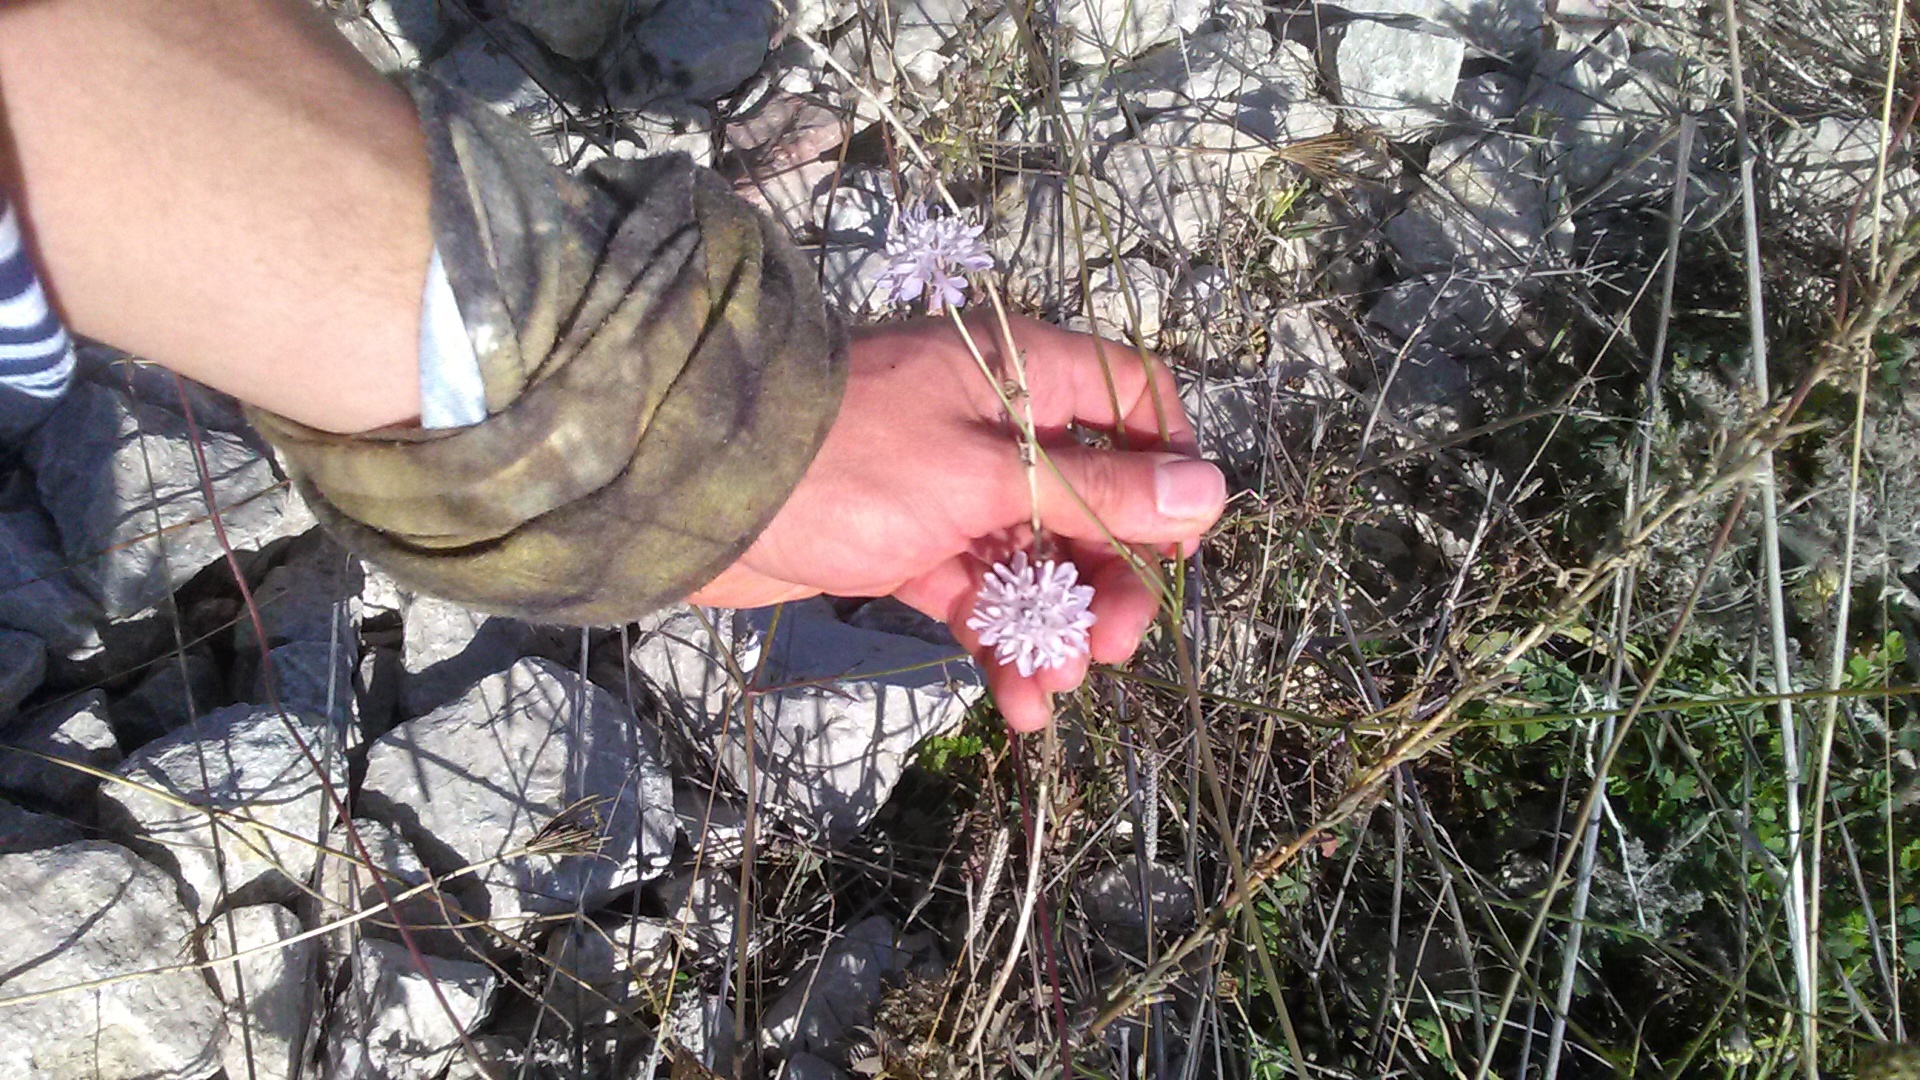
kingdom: Plantae
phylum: Tracheophyta
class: Magnoliopsida
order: Dipsacales
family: Caprifoliaceae
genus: Cephalaria
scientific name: Cephalaria transsylvanica
